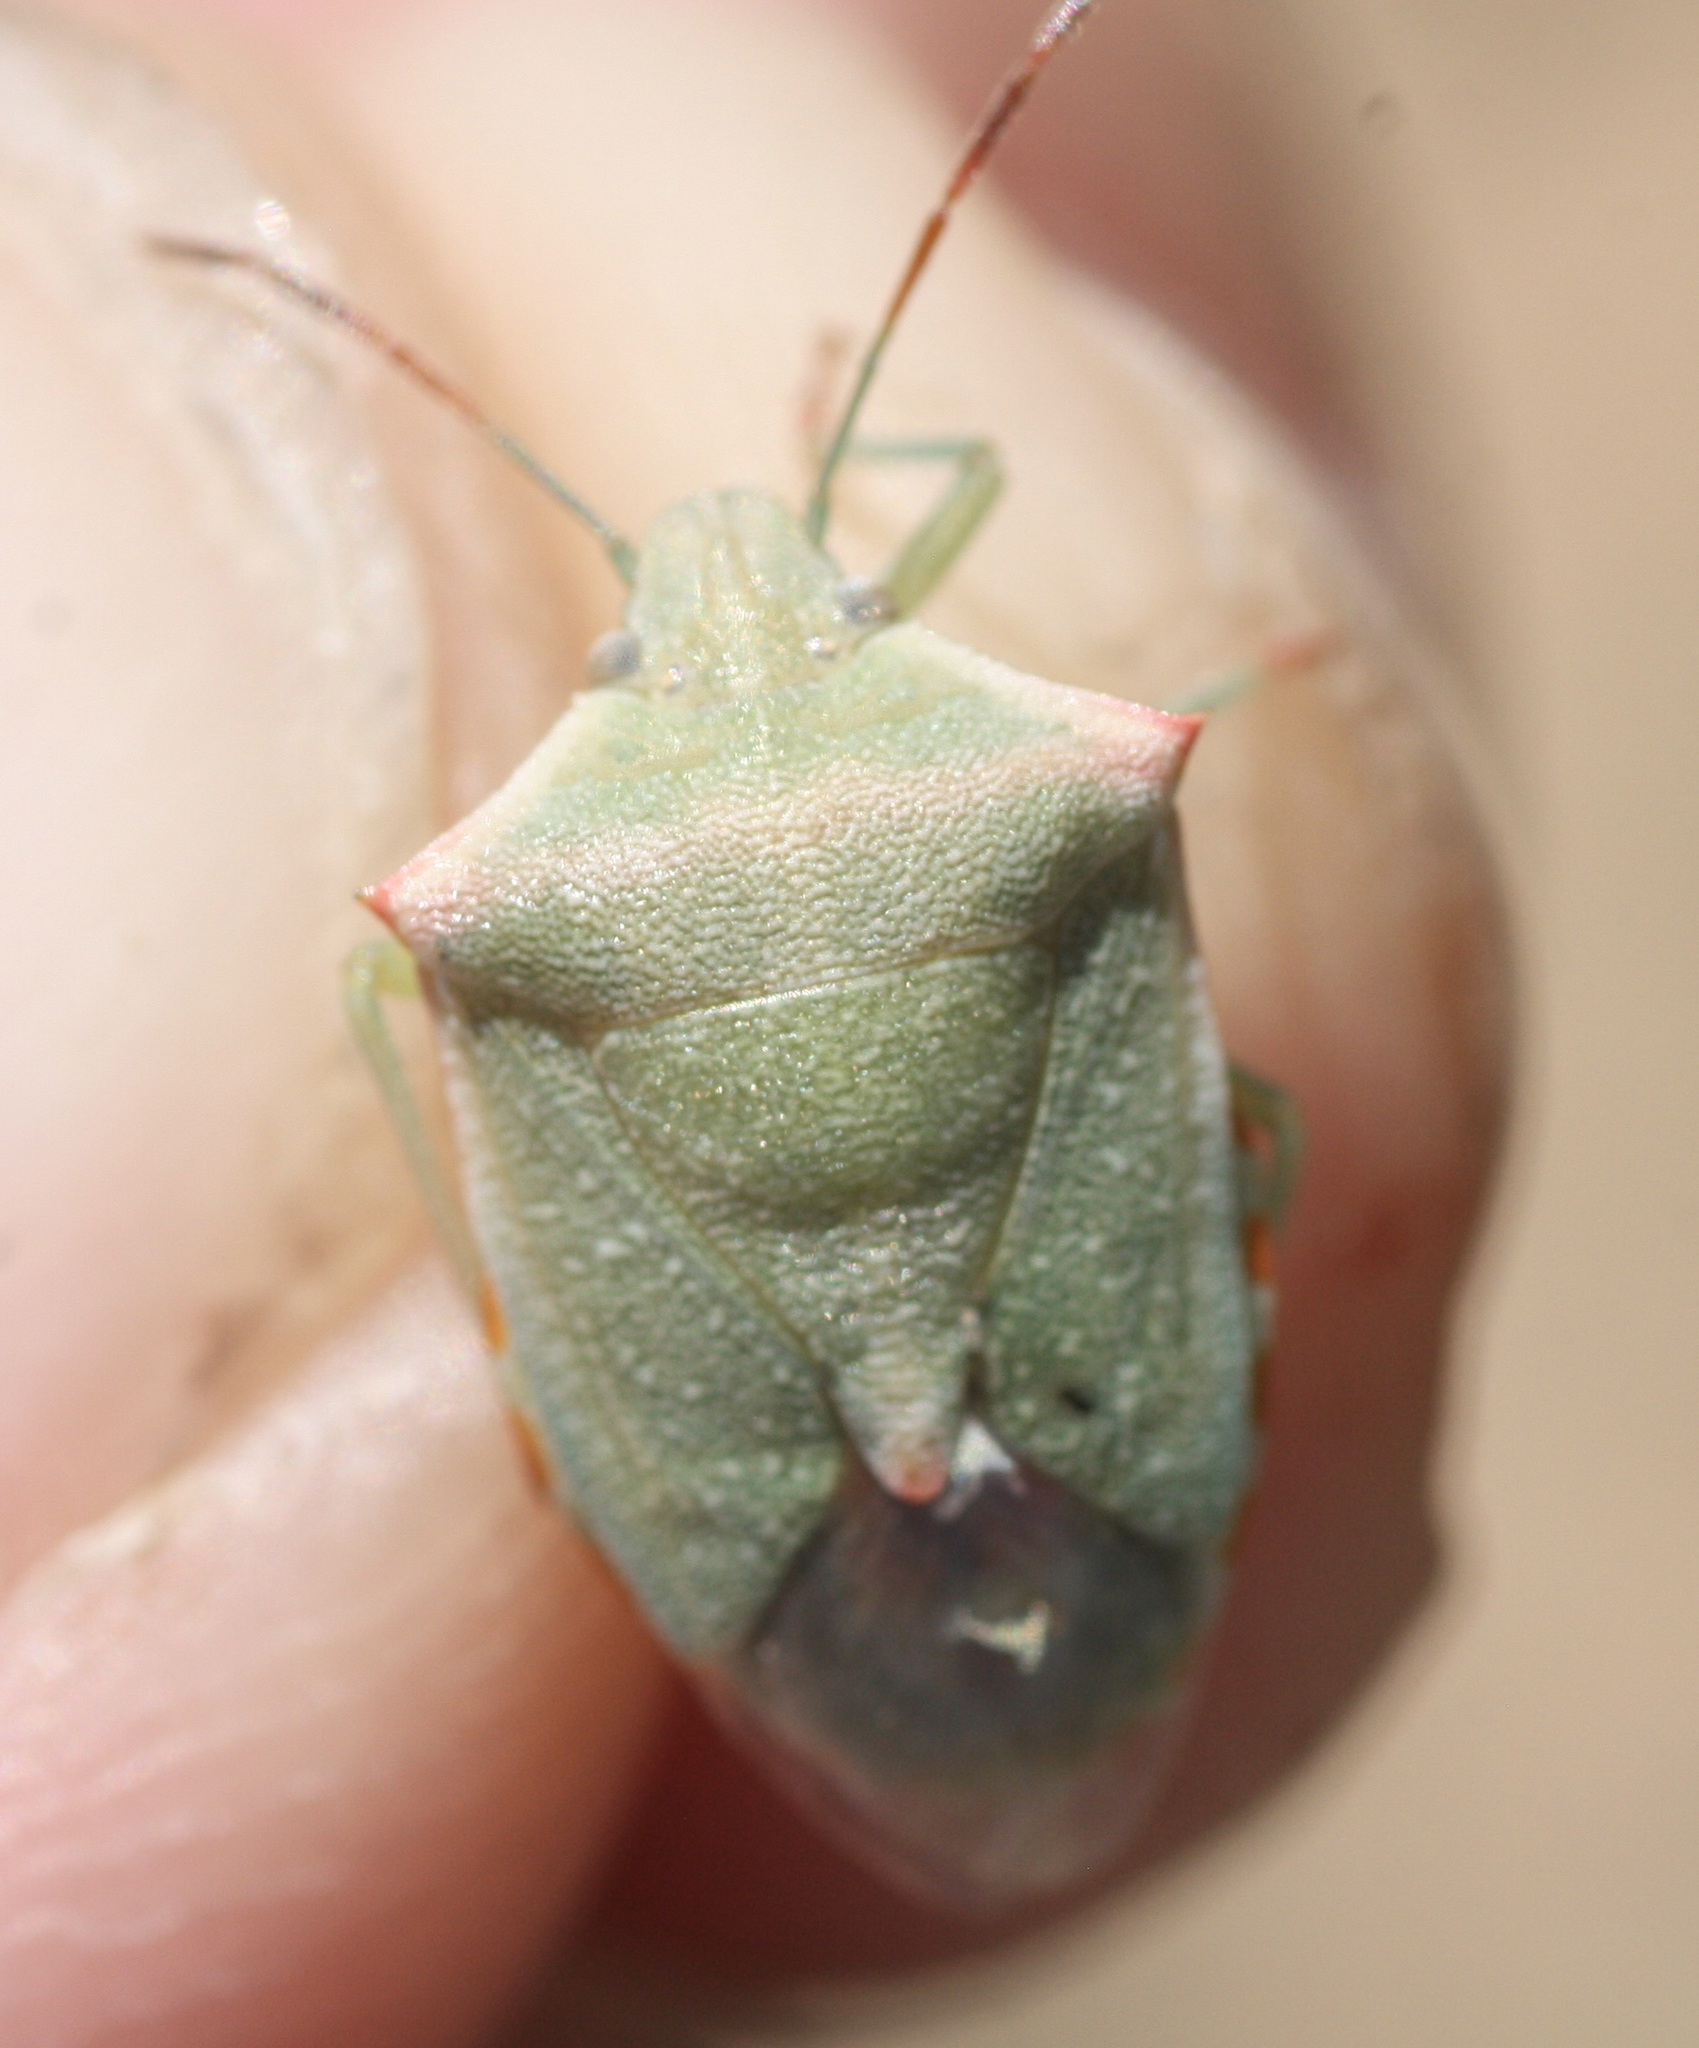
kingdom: Animalia
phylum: Arthropoda
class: Insecta
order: Hemiptera
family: Pentatomidae
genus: Thyanta
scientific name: Thyanta accerra
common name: Stink bug
